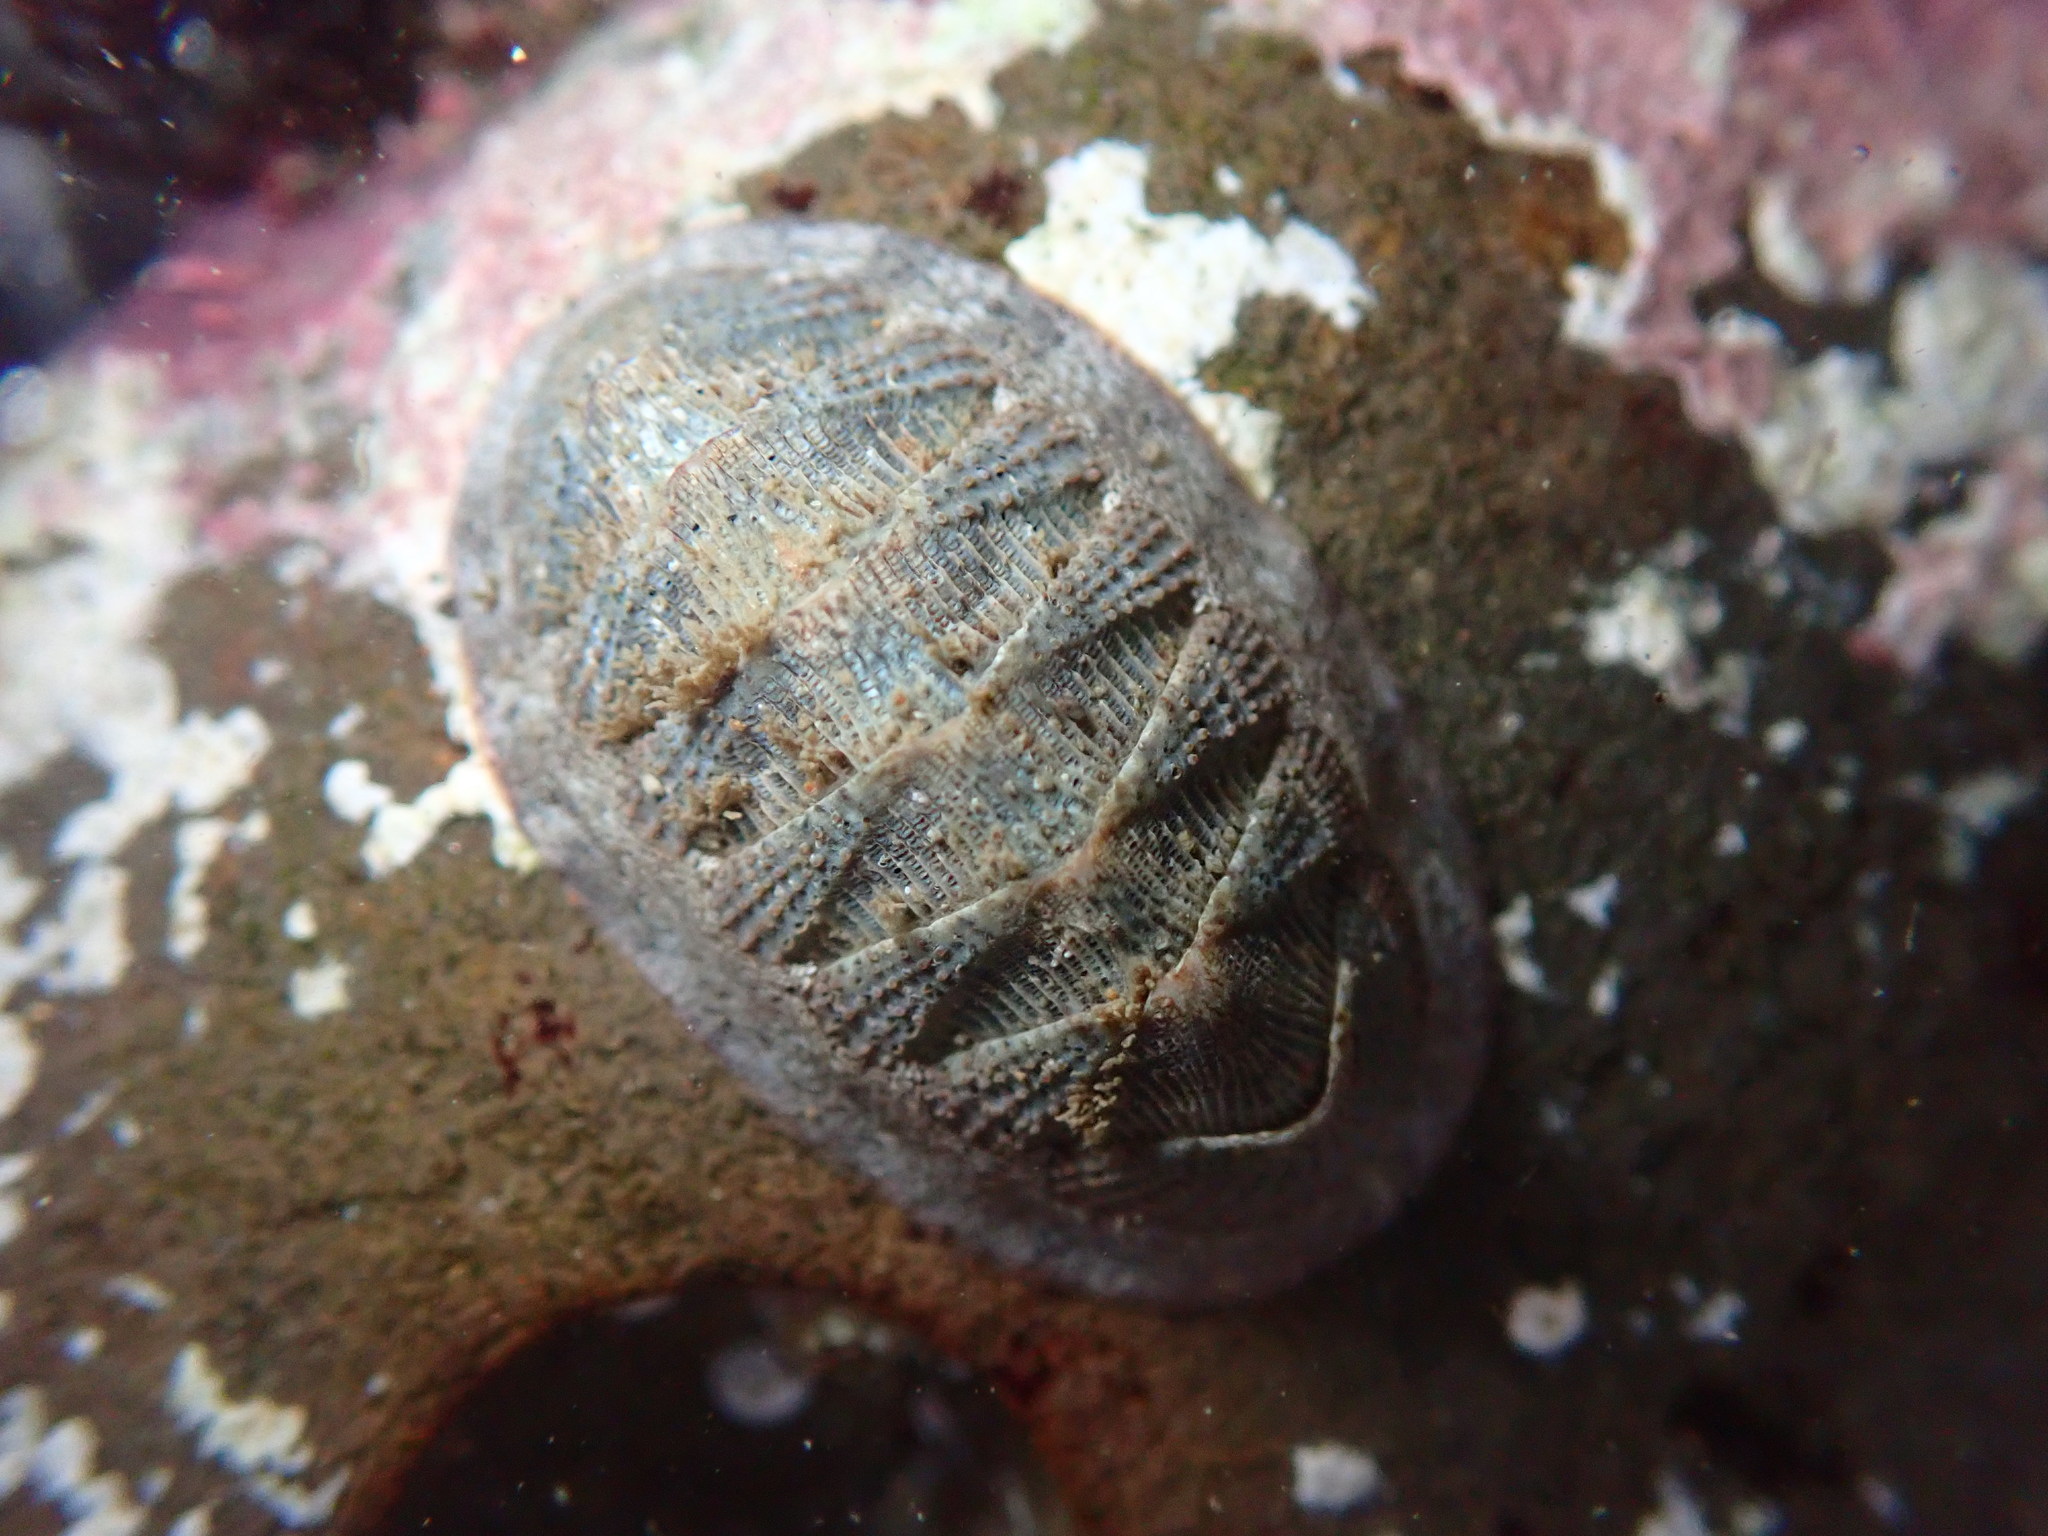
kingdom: Animalia
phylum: Mollusca
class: Polyplacophora
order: Chitonida
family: Ischnochitonidae
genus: Lepidozona
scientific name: Lepidozona cooperi
